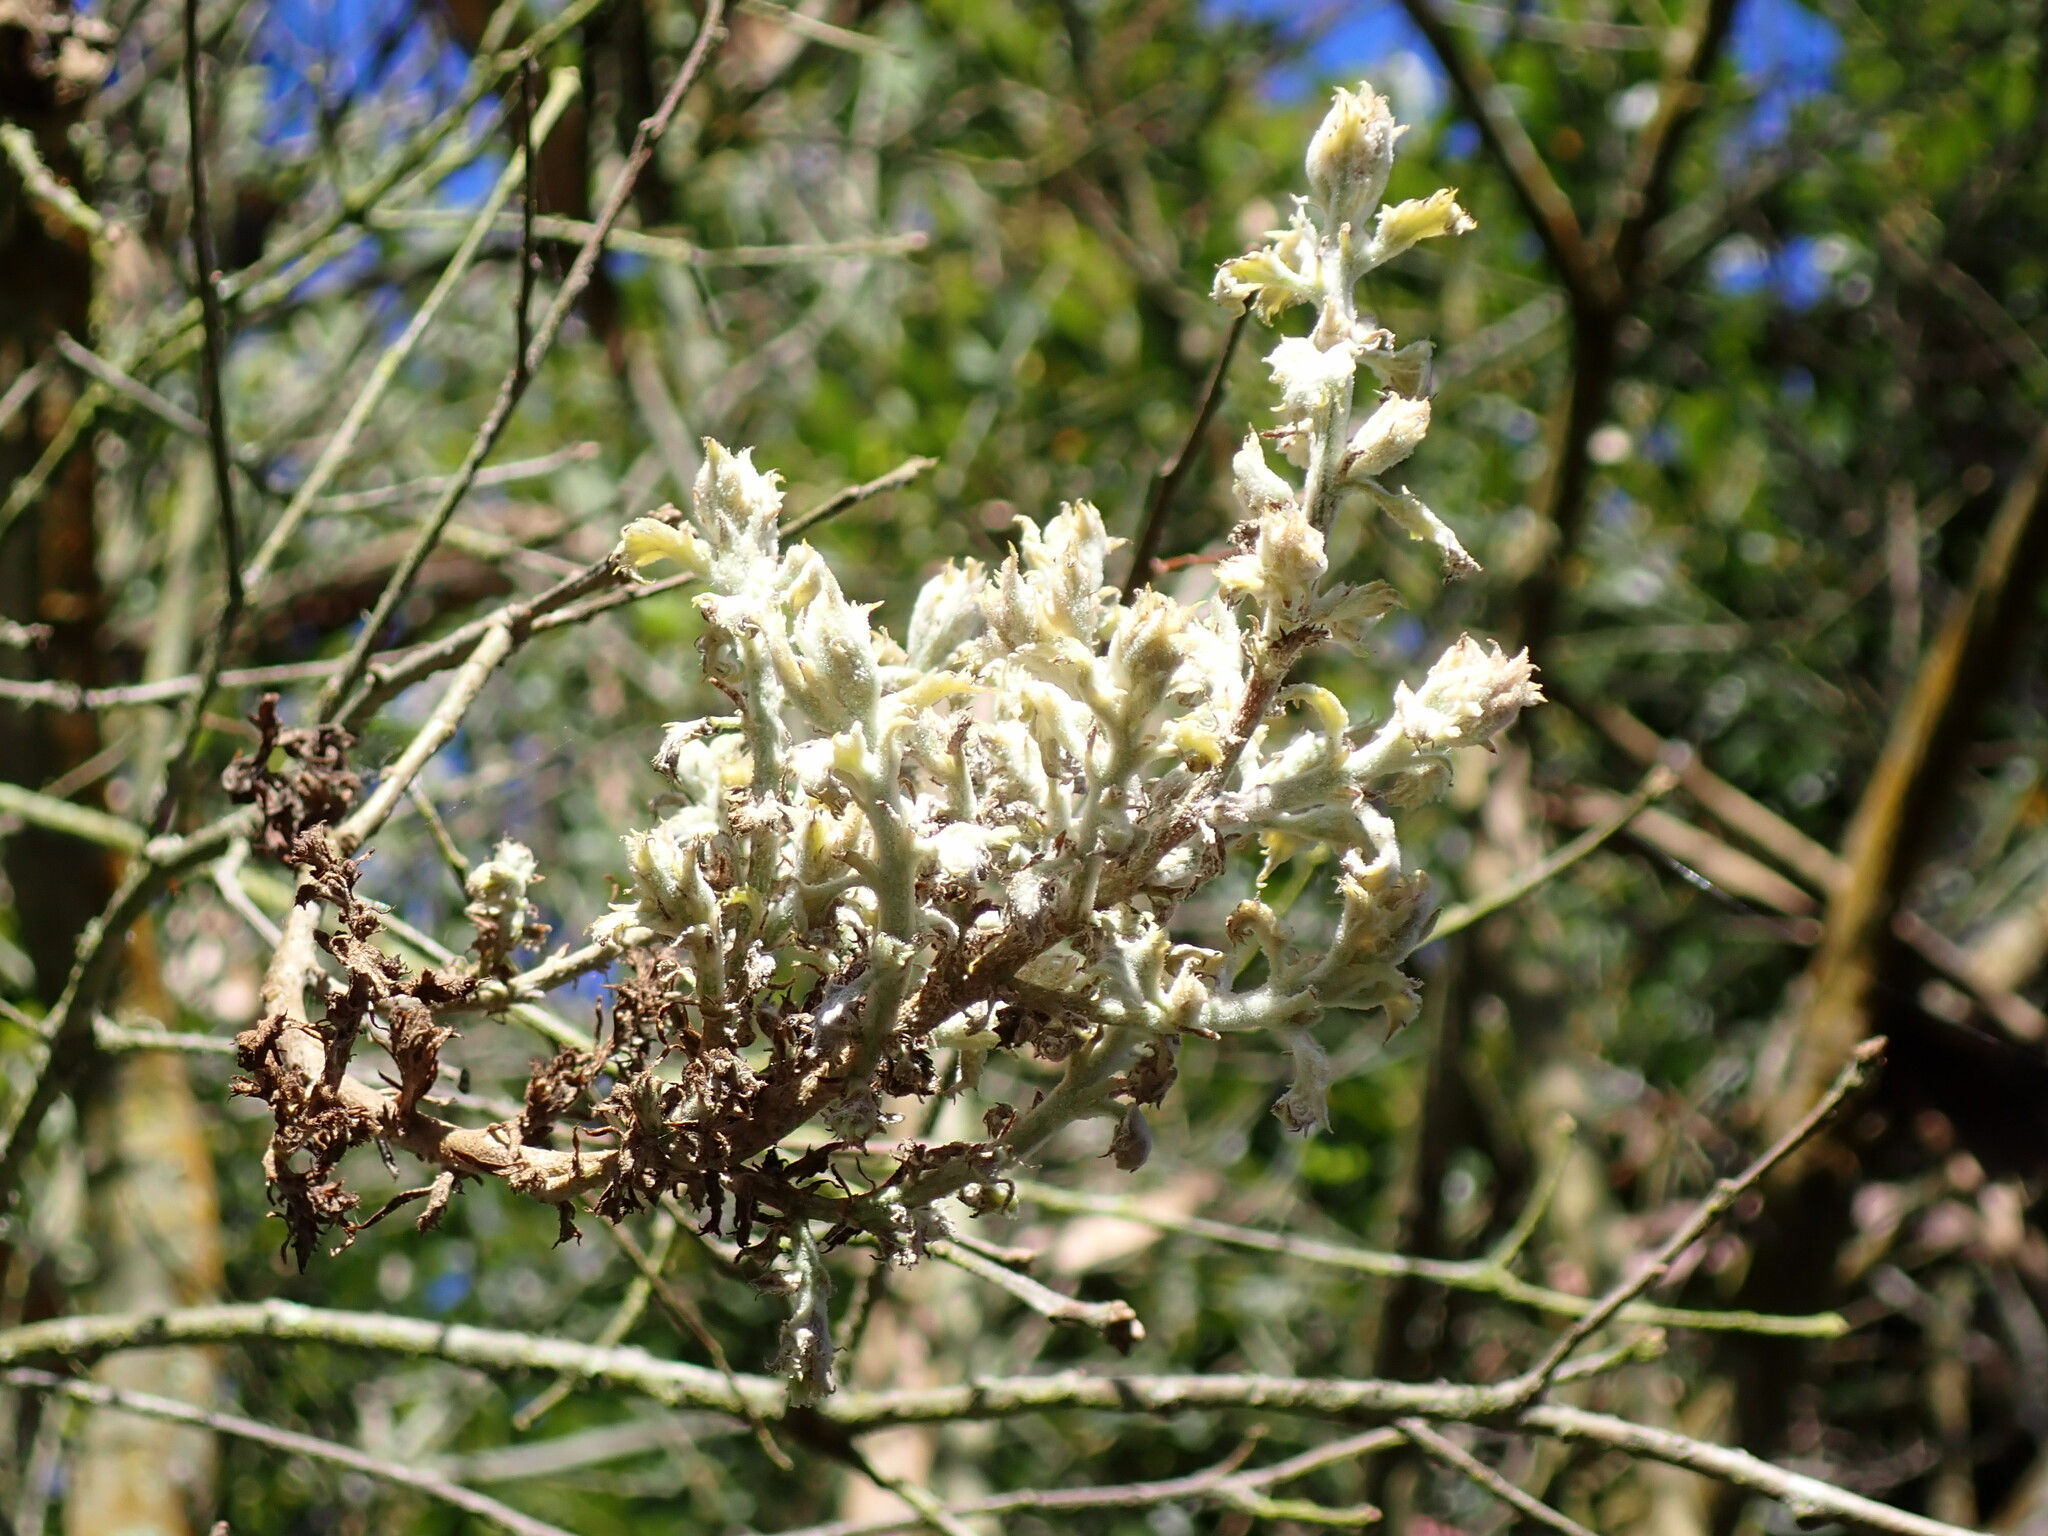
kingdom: Fungi
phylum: Ascomycota
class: Leotiomycetes
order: Helotiales
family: Erysiphaceae
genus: Cystotheca
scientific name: Cystotheca lanestris
